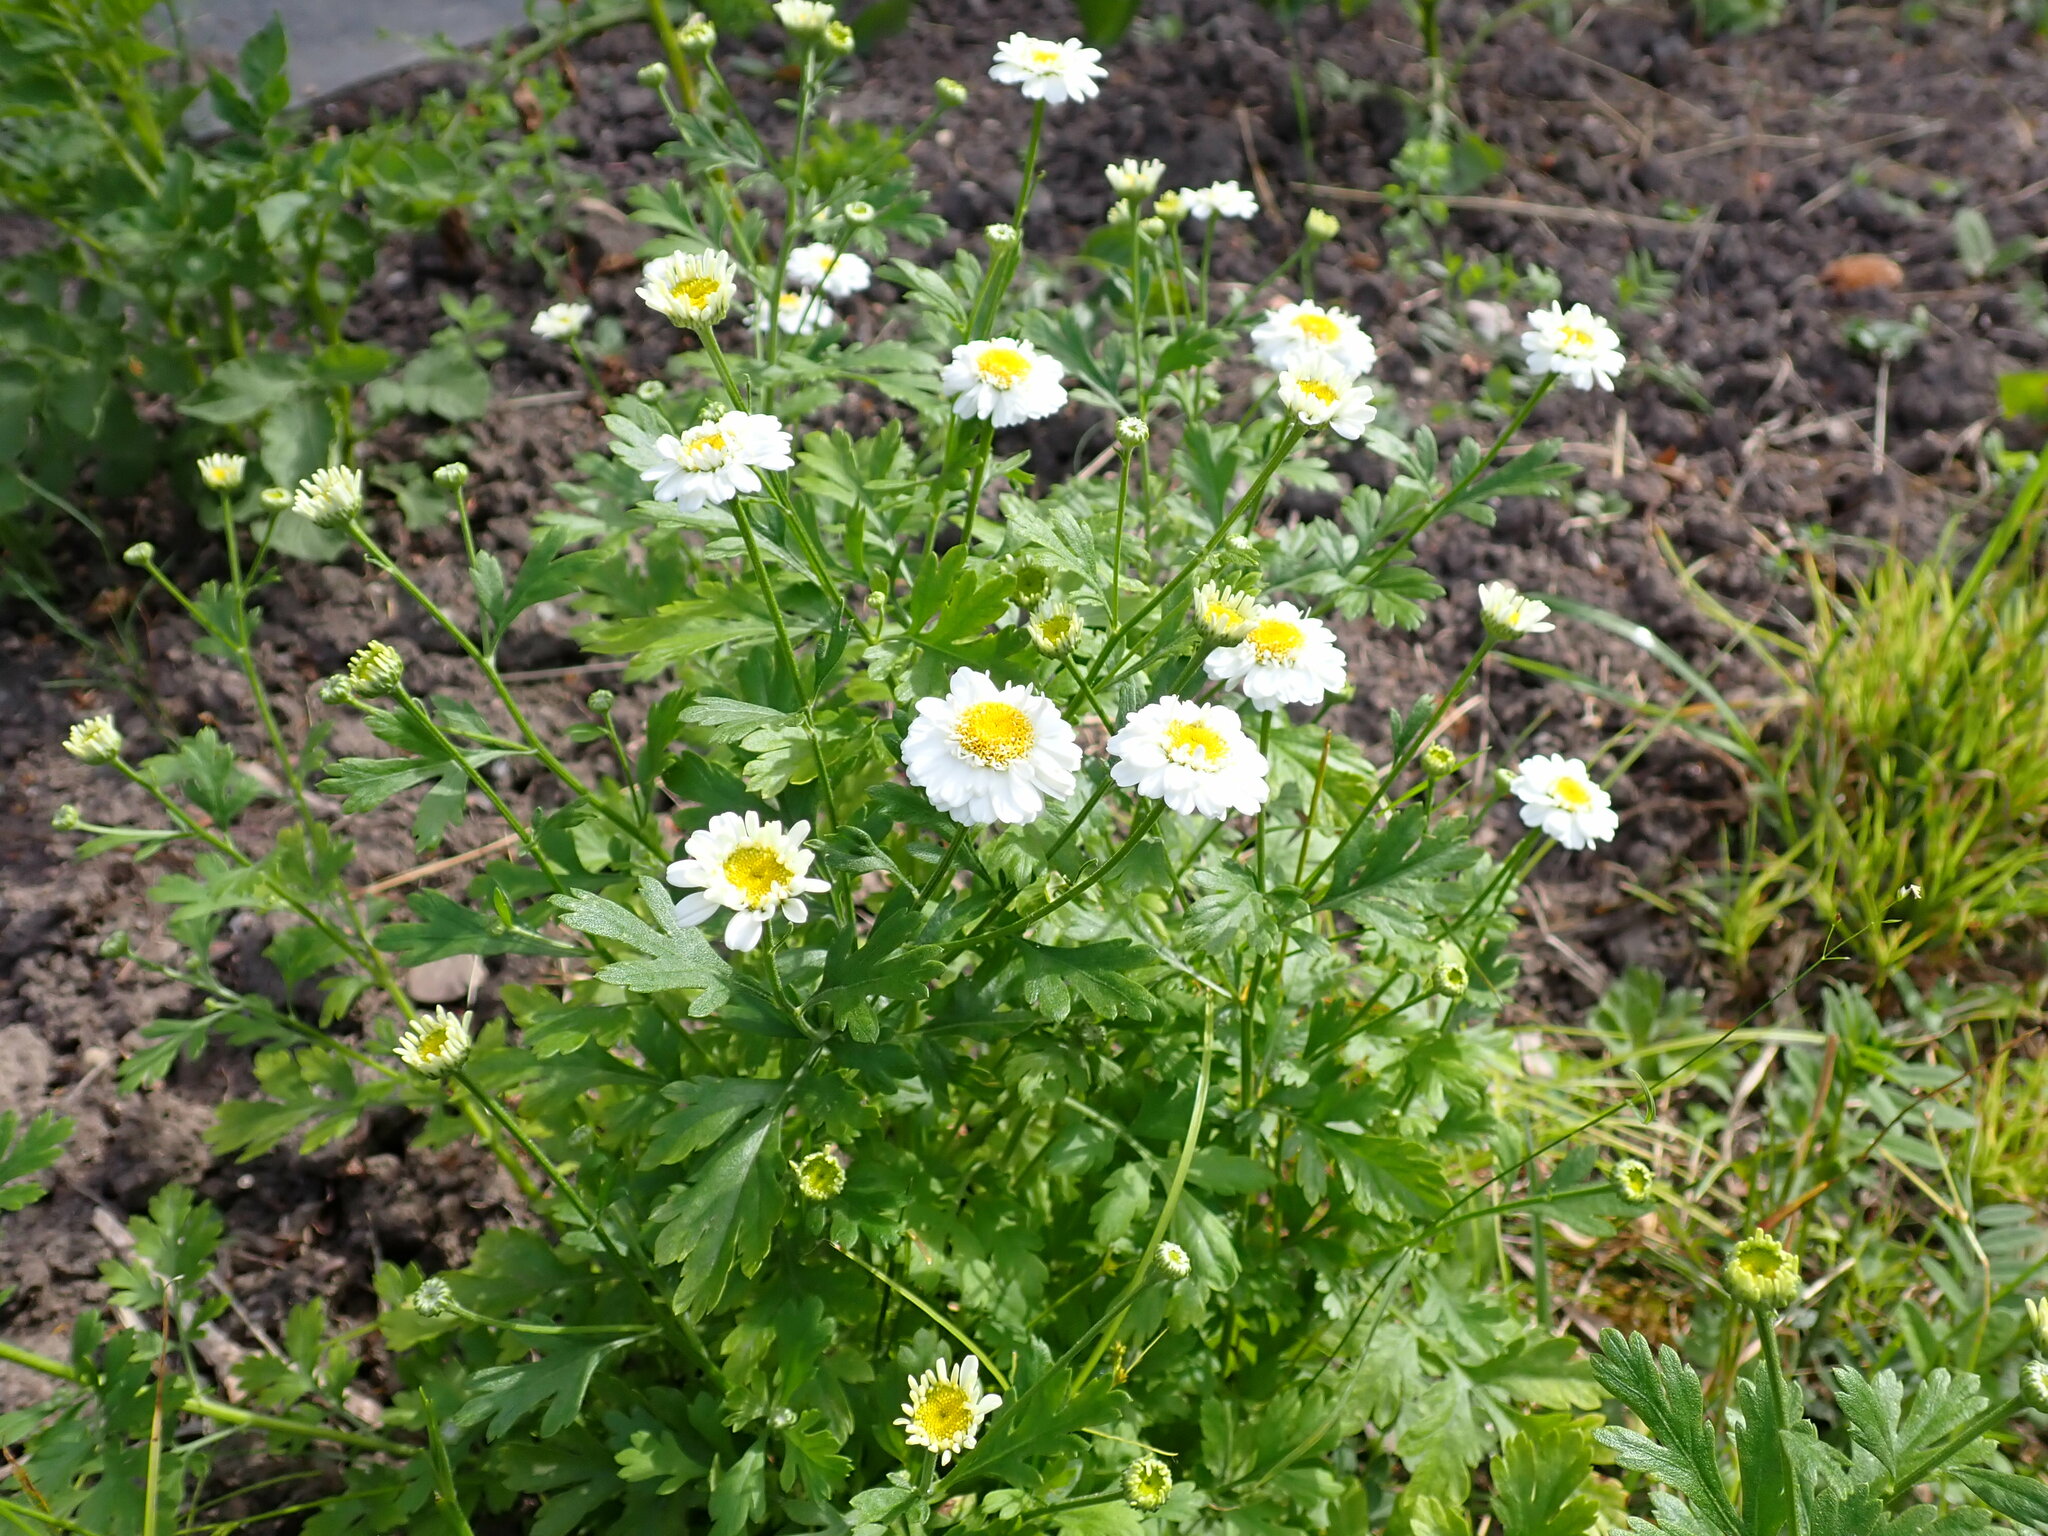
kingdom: Plantae
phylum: Tracheophyta
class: Magnoliopsida
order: Asterales
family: Asteraceae
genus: Tanacetum
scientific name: Tanacetum parthenium
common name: Feverfew
